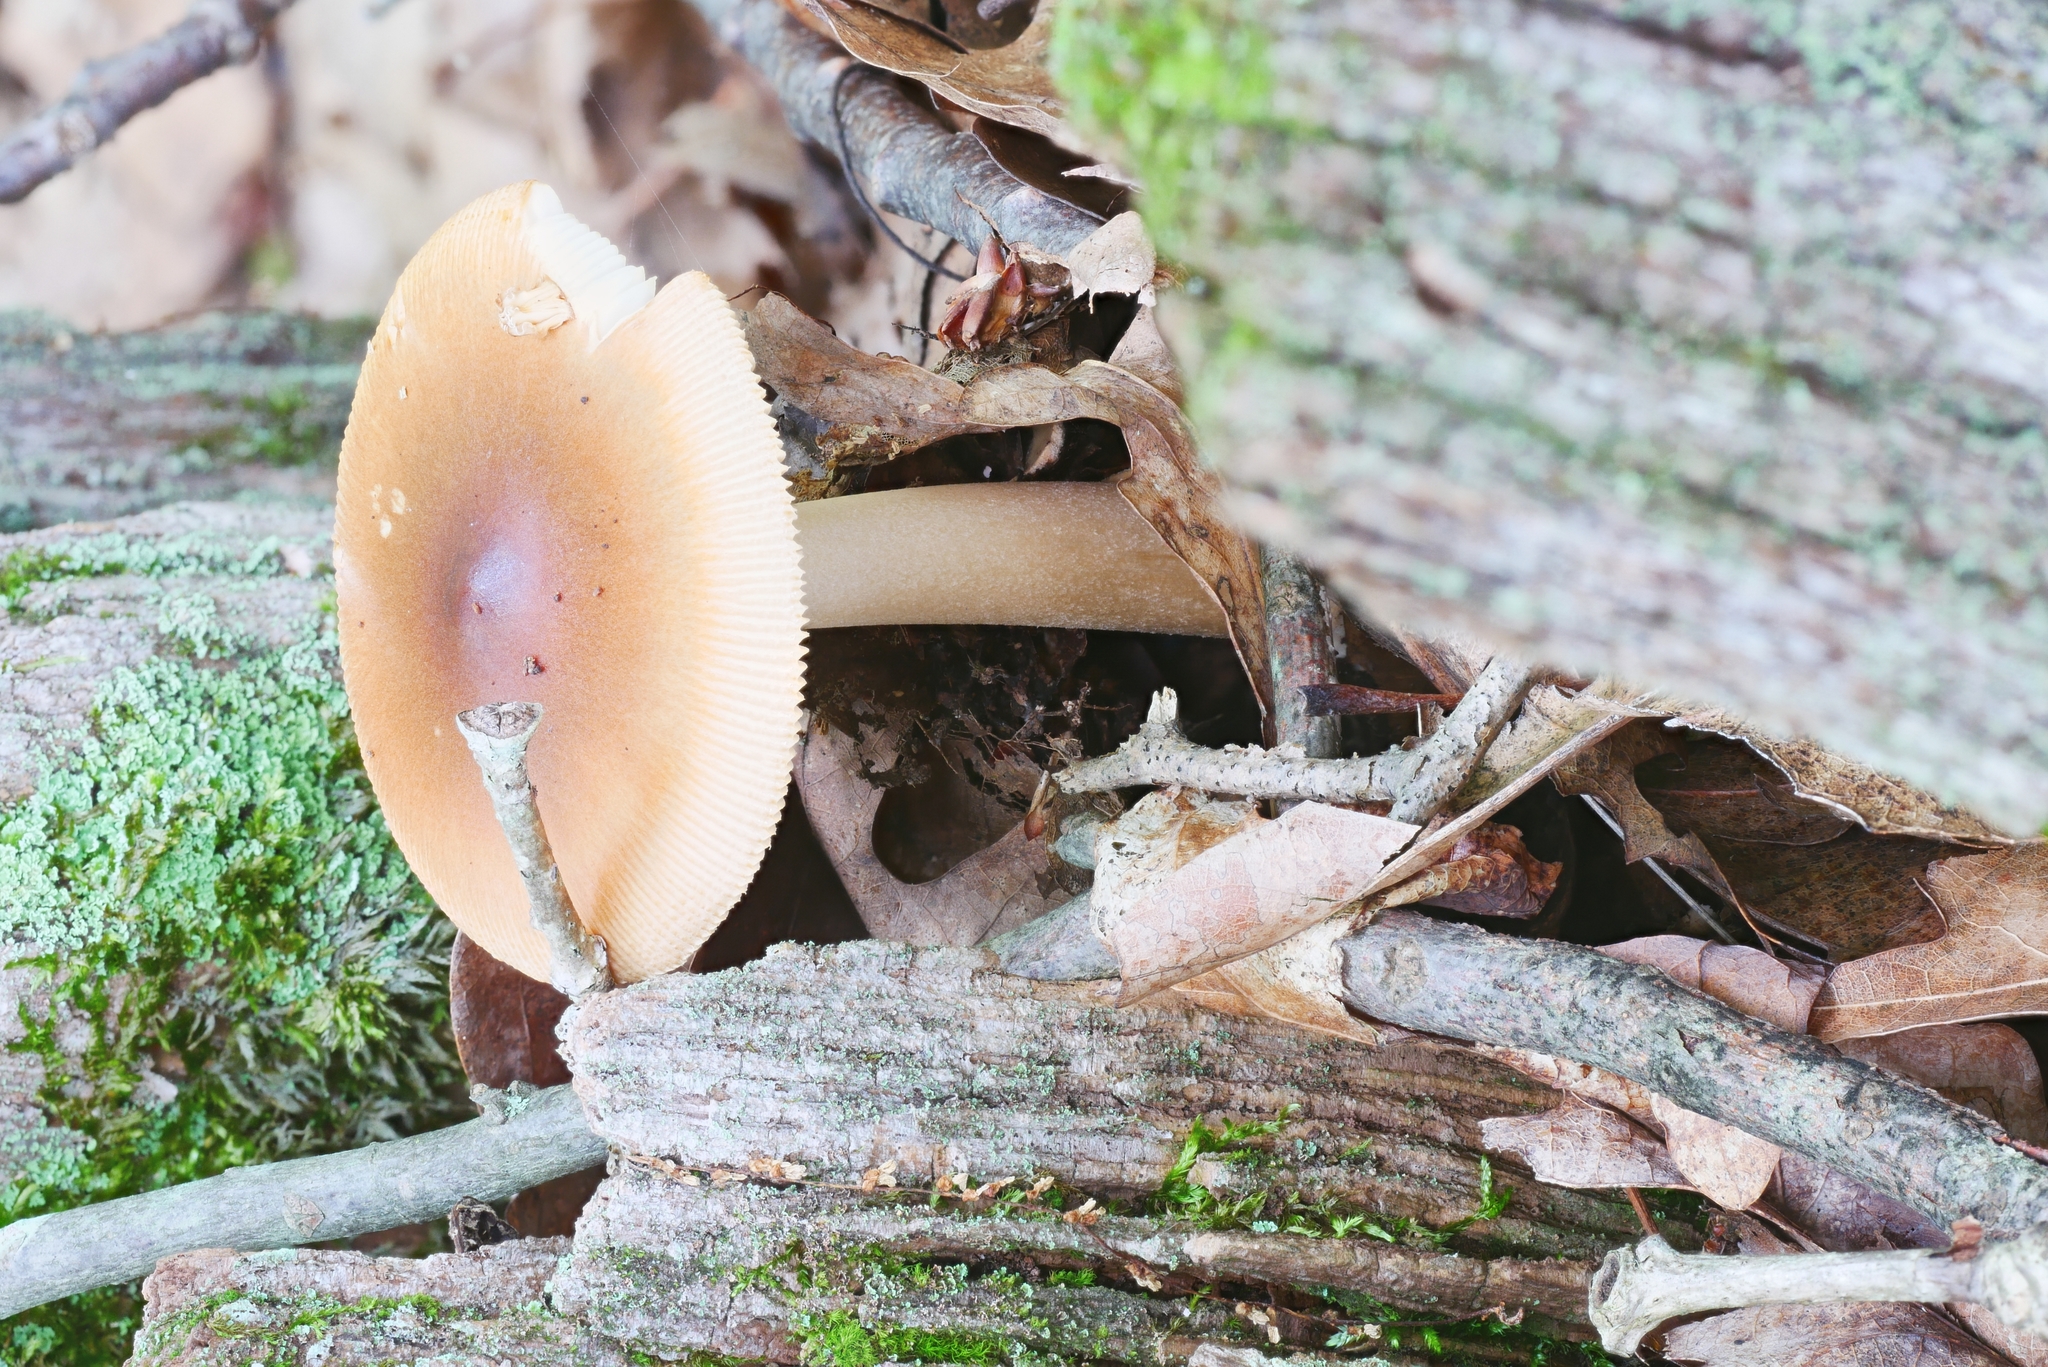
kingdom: Fungi
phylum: Basidiomycota
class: Agaricomycetes
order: Agaricales
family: Amanitaceae
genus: Amanita
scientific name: Amanita fulva
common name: Tawny grisette
